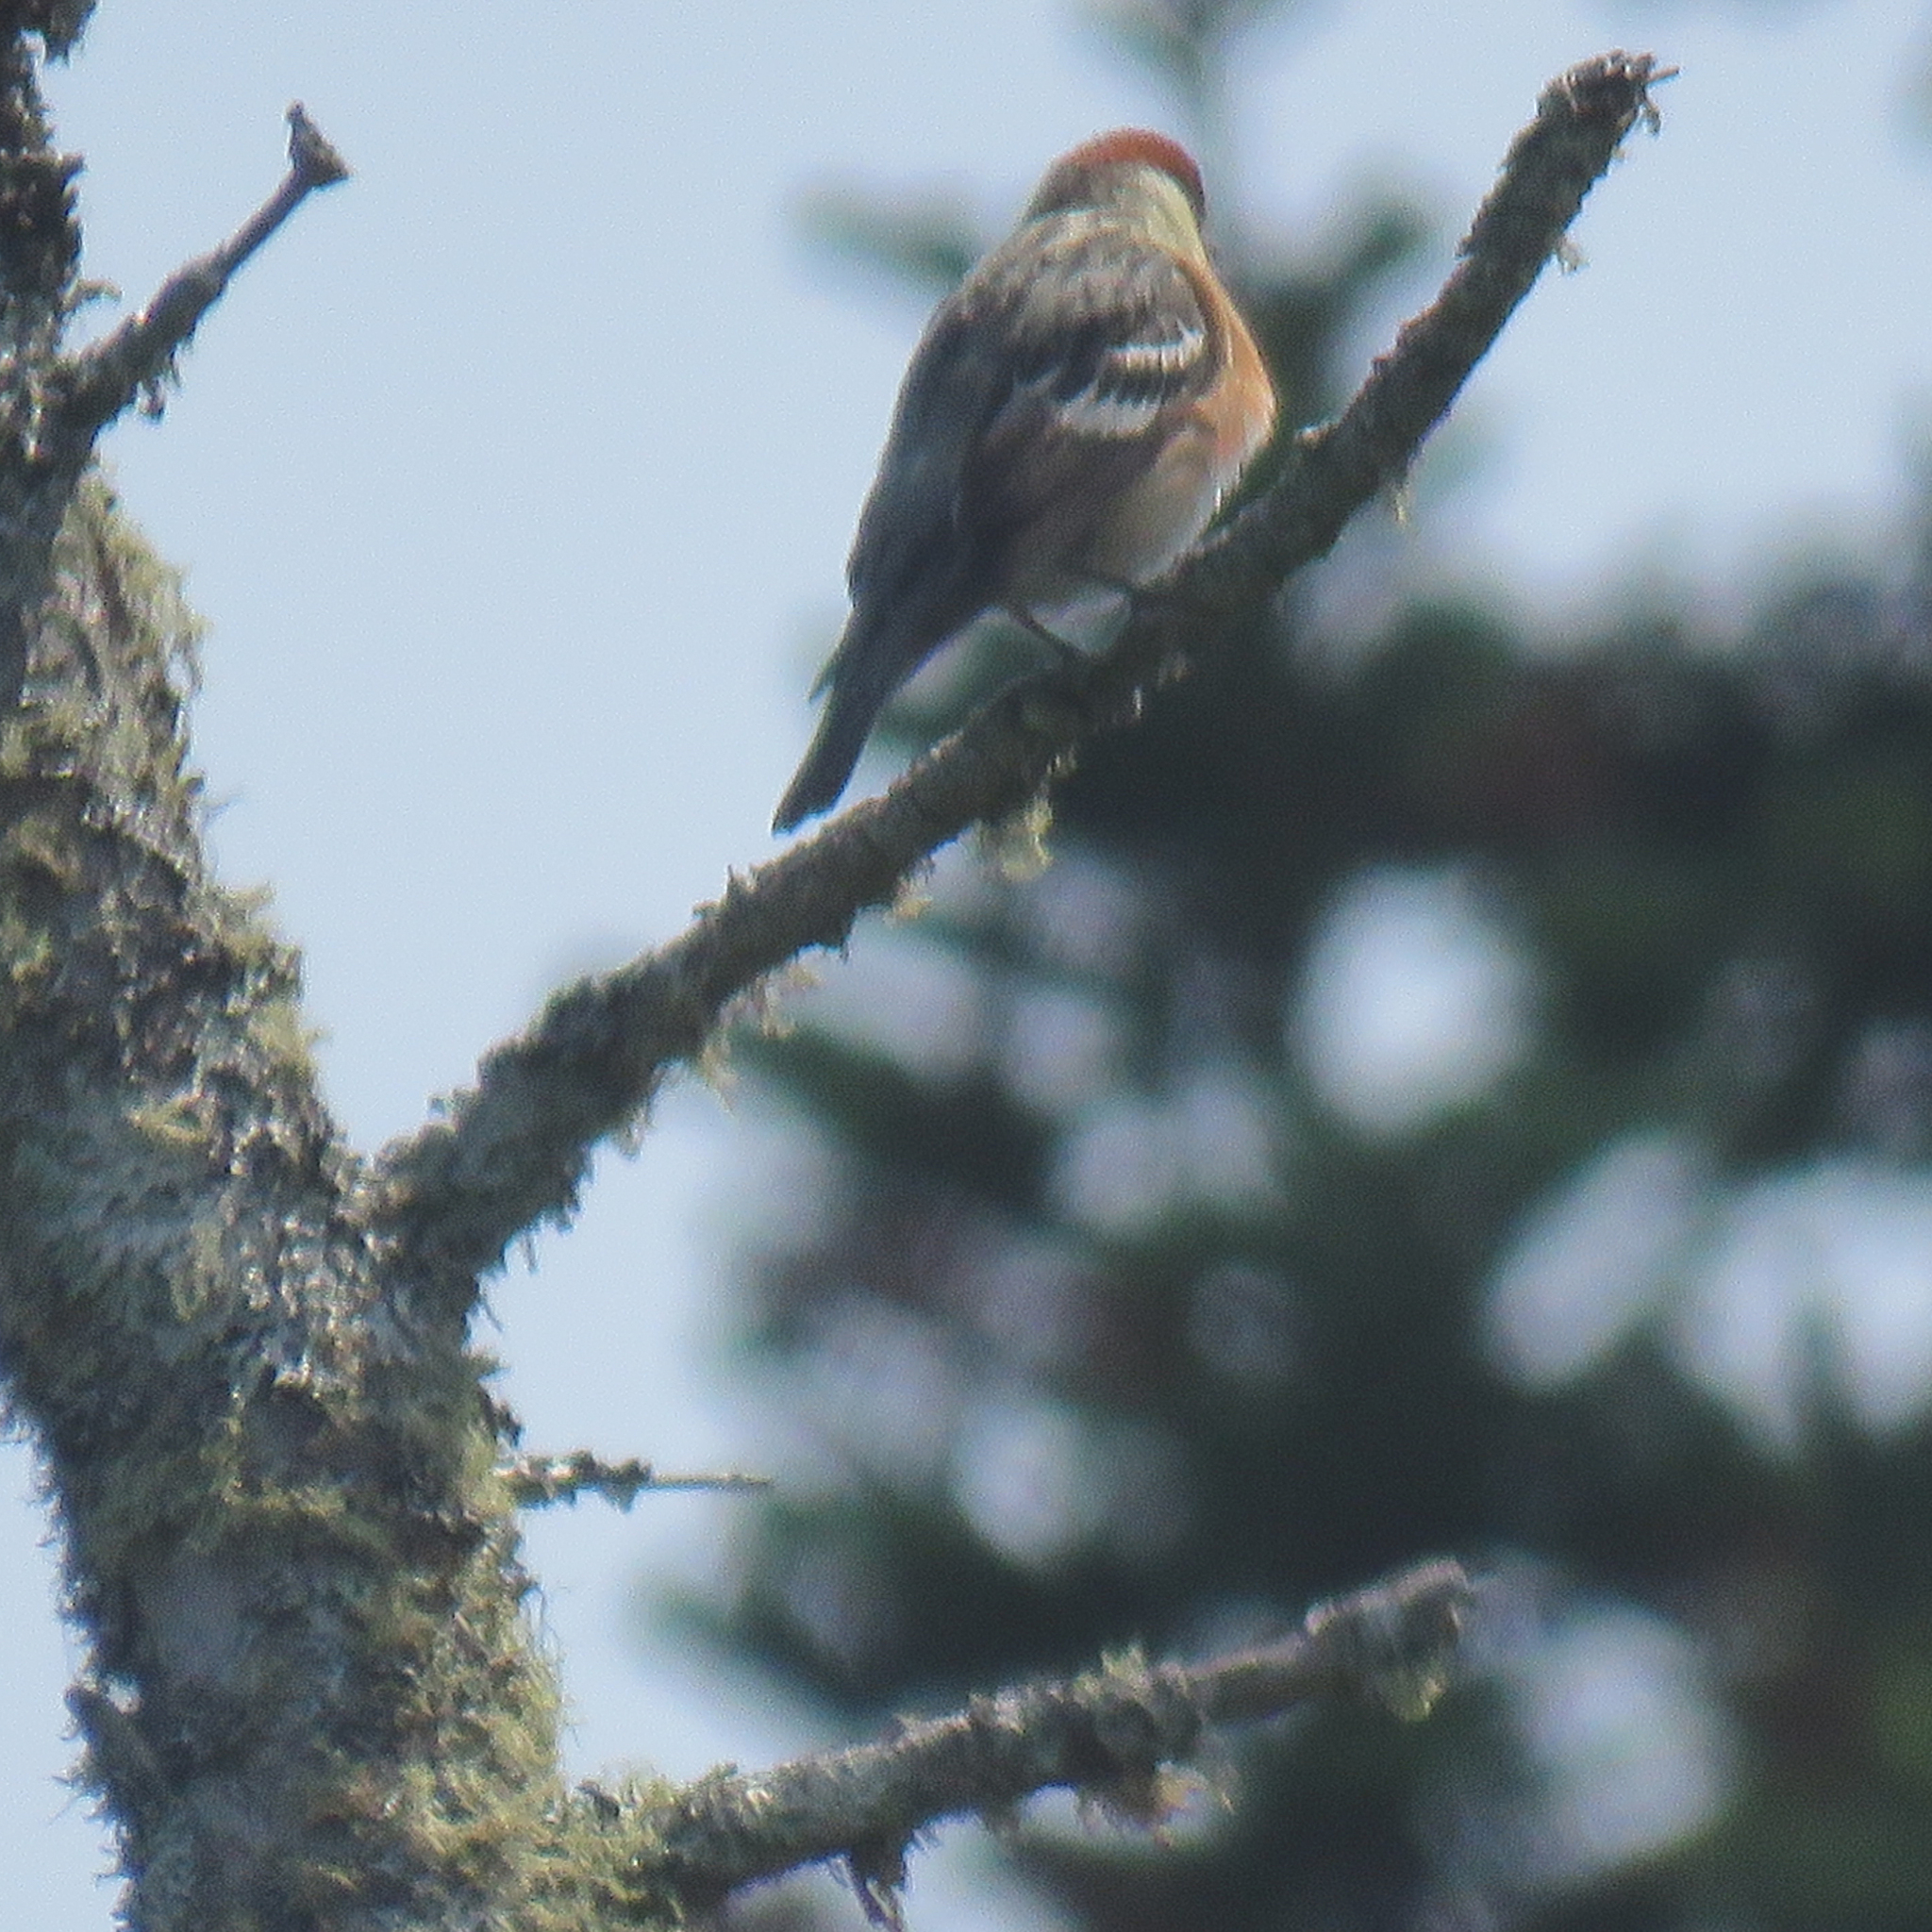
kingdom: Animalia
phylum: Chordata
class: Aves
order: Passeriformes
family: Parulidae
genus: Setophaga
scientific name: Setophaga castanea
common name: Bay-breasted warbler
